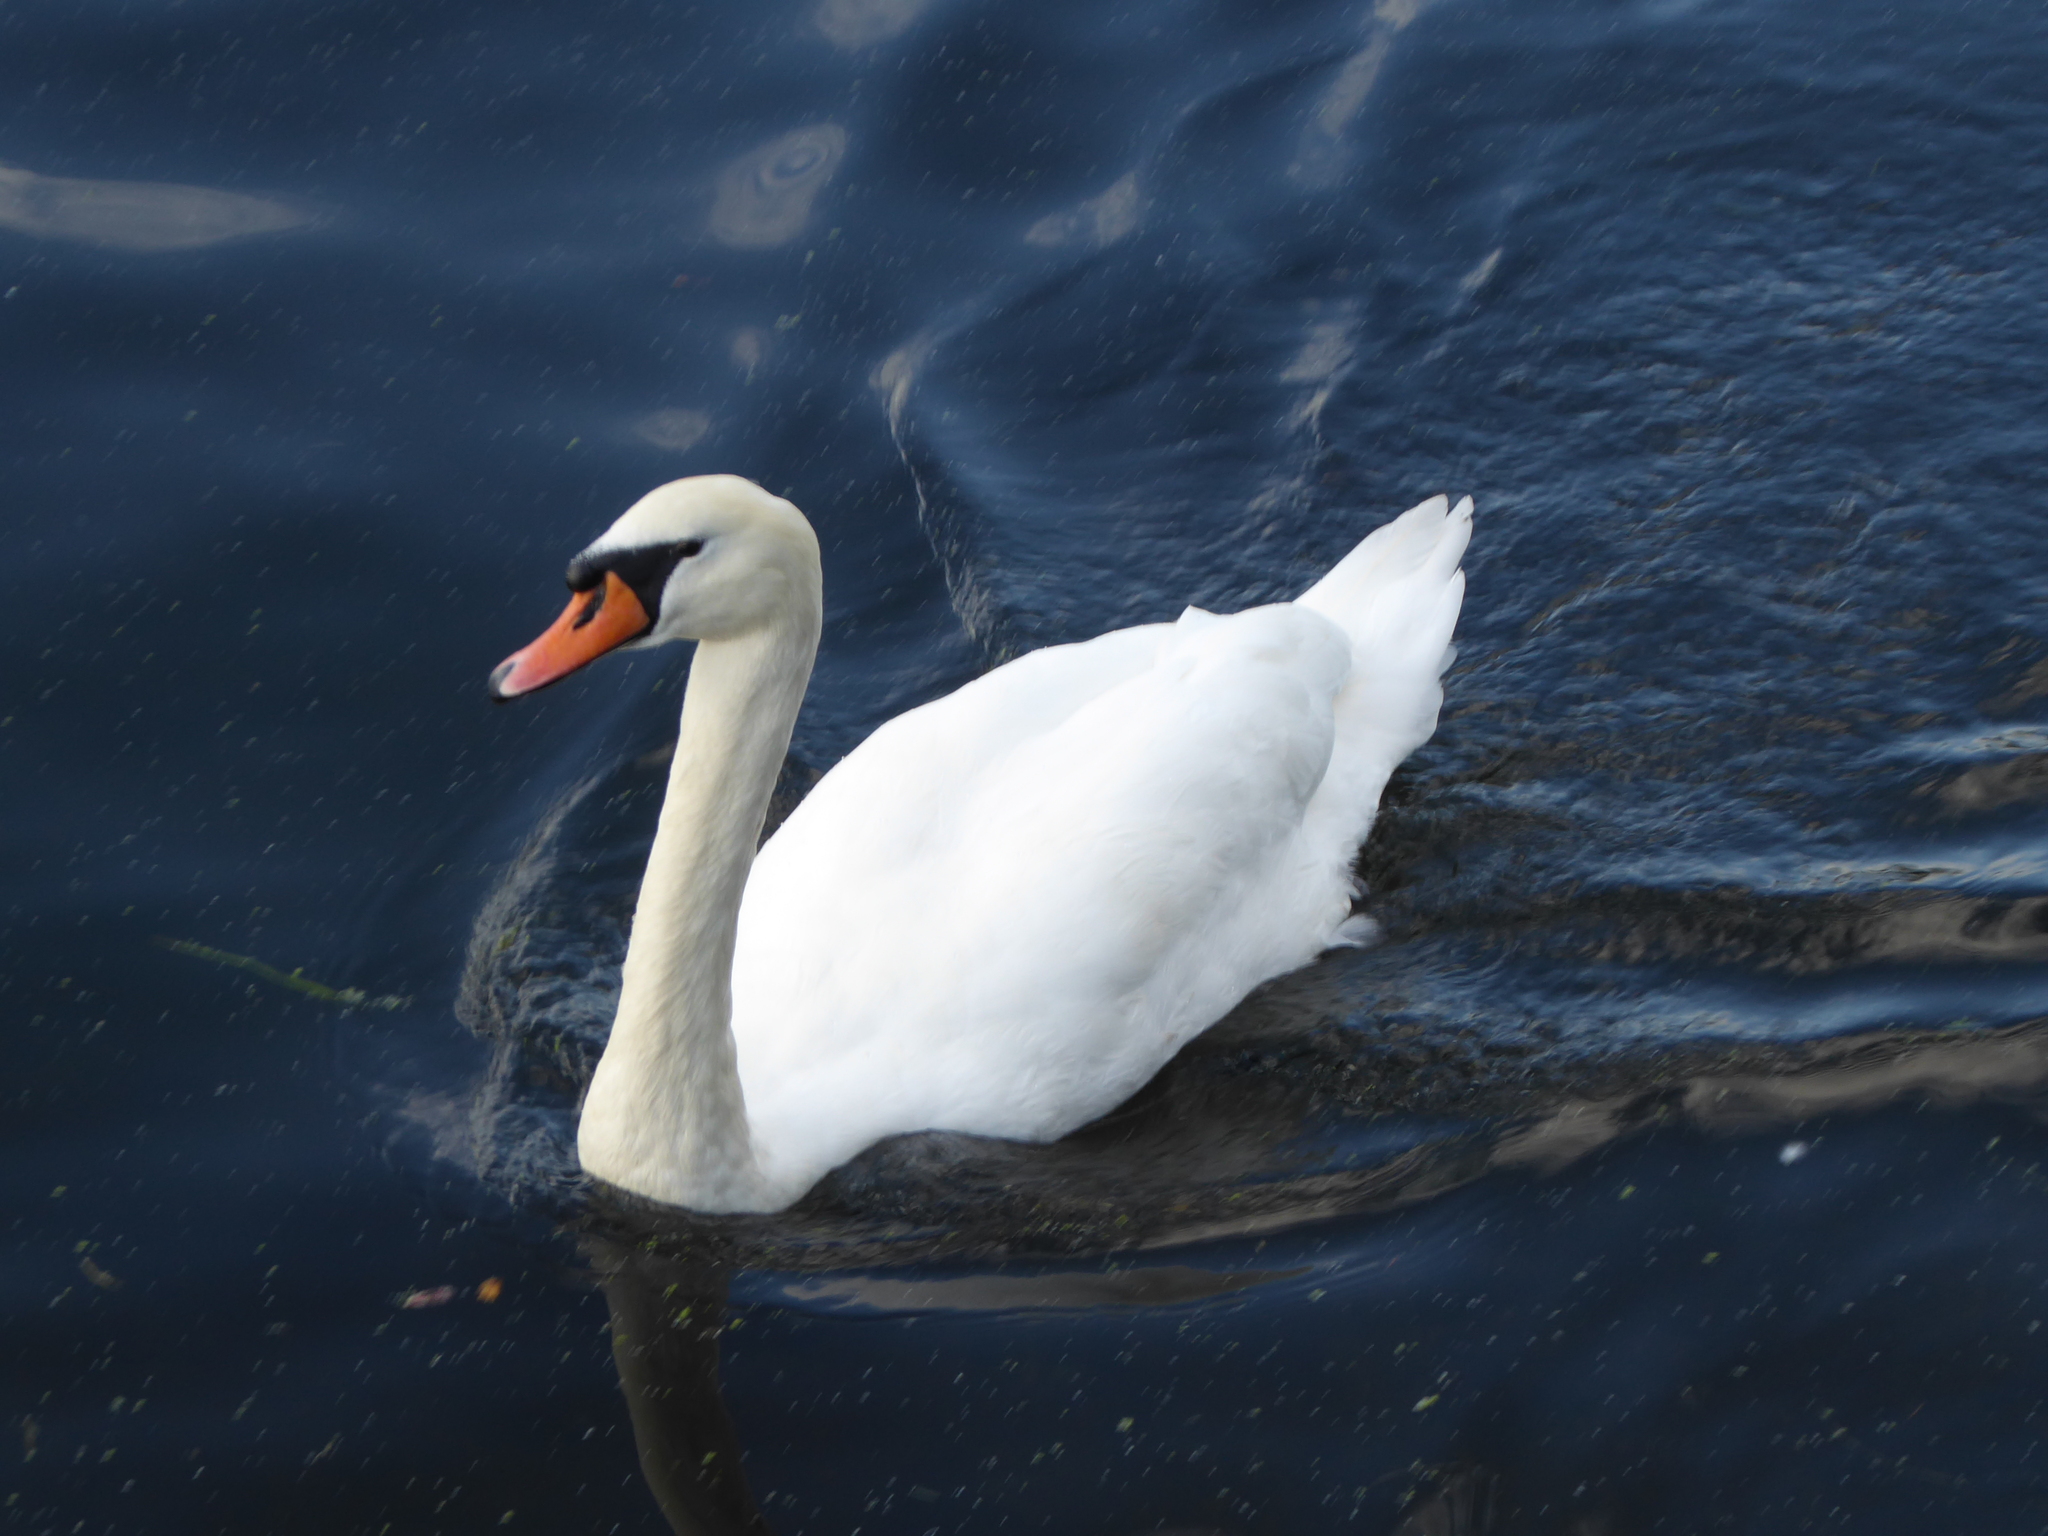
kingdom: Animalia
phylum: Chordata
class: Aves
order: Anseriformes
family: Anatidae
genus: Cygnus
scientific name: Cygnus olor
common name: Mute swan
